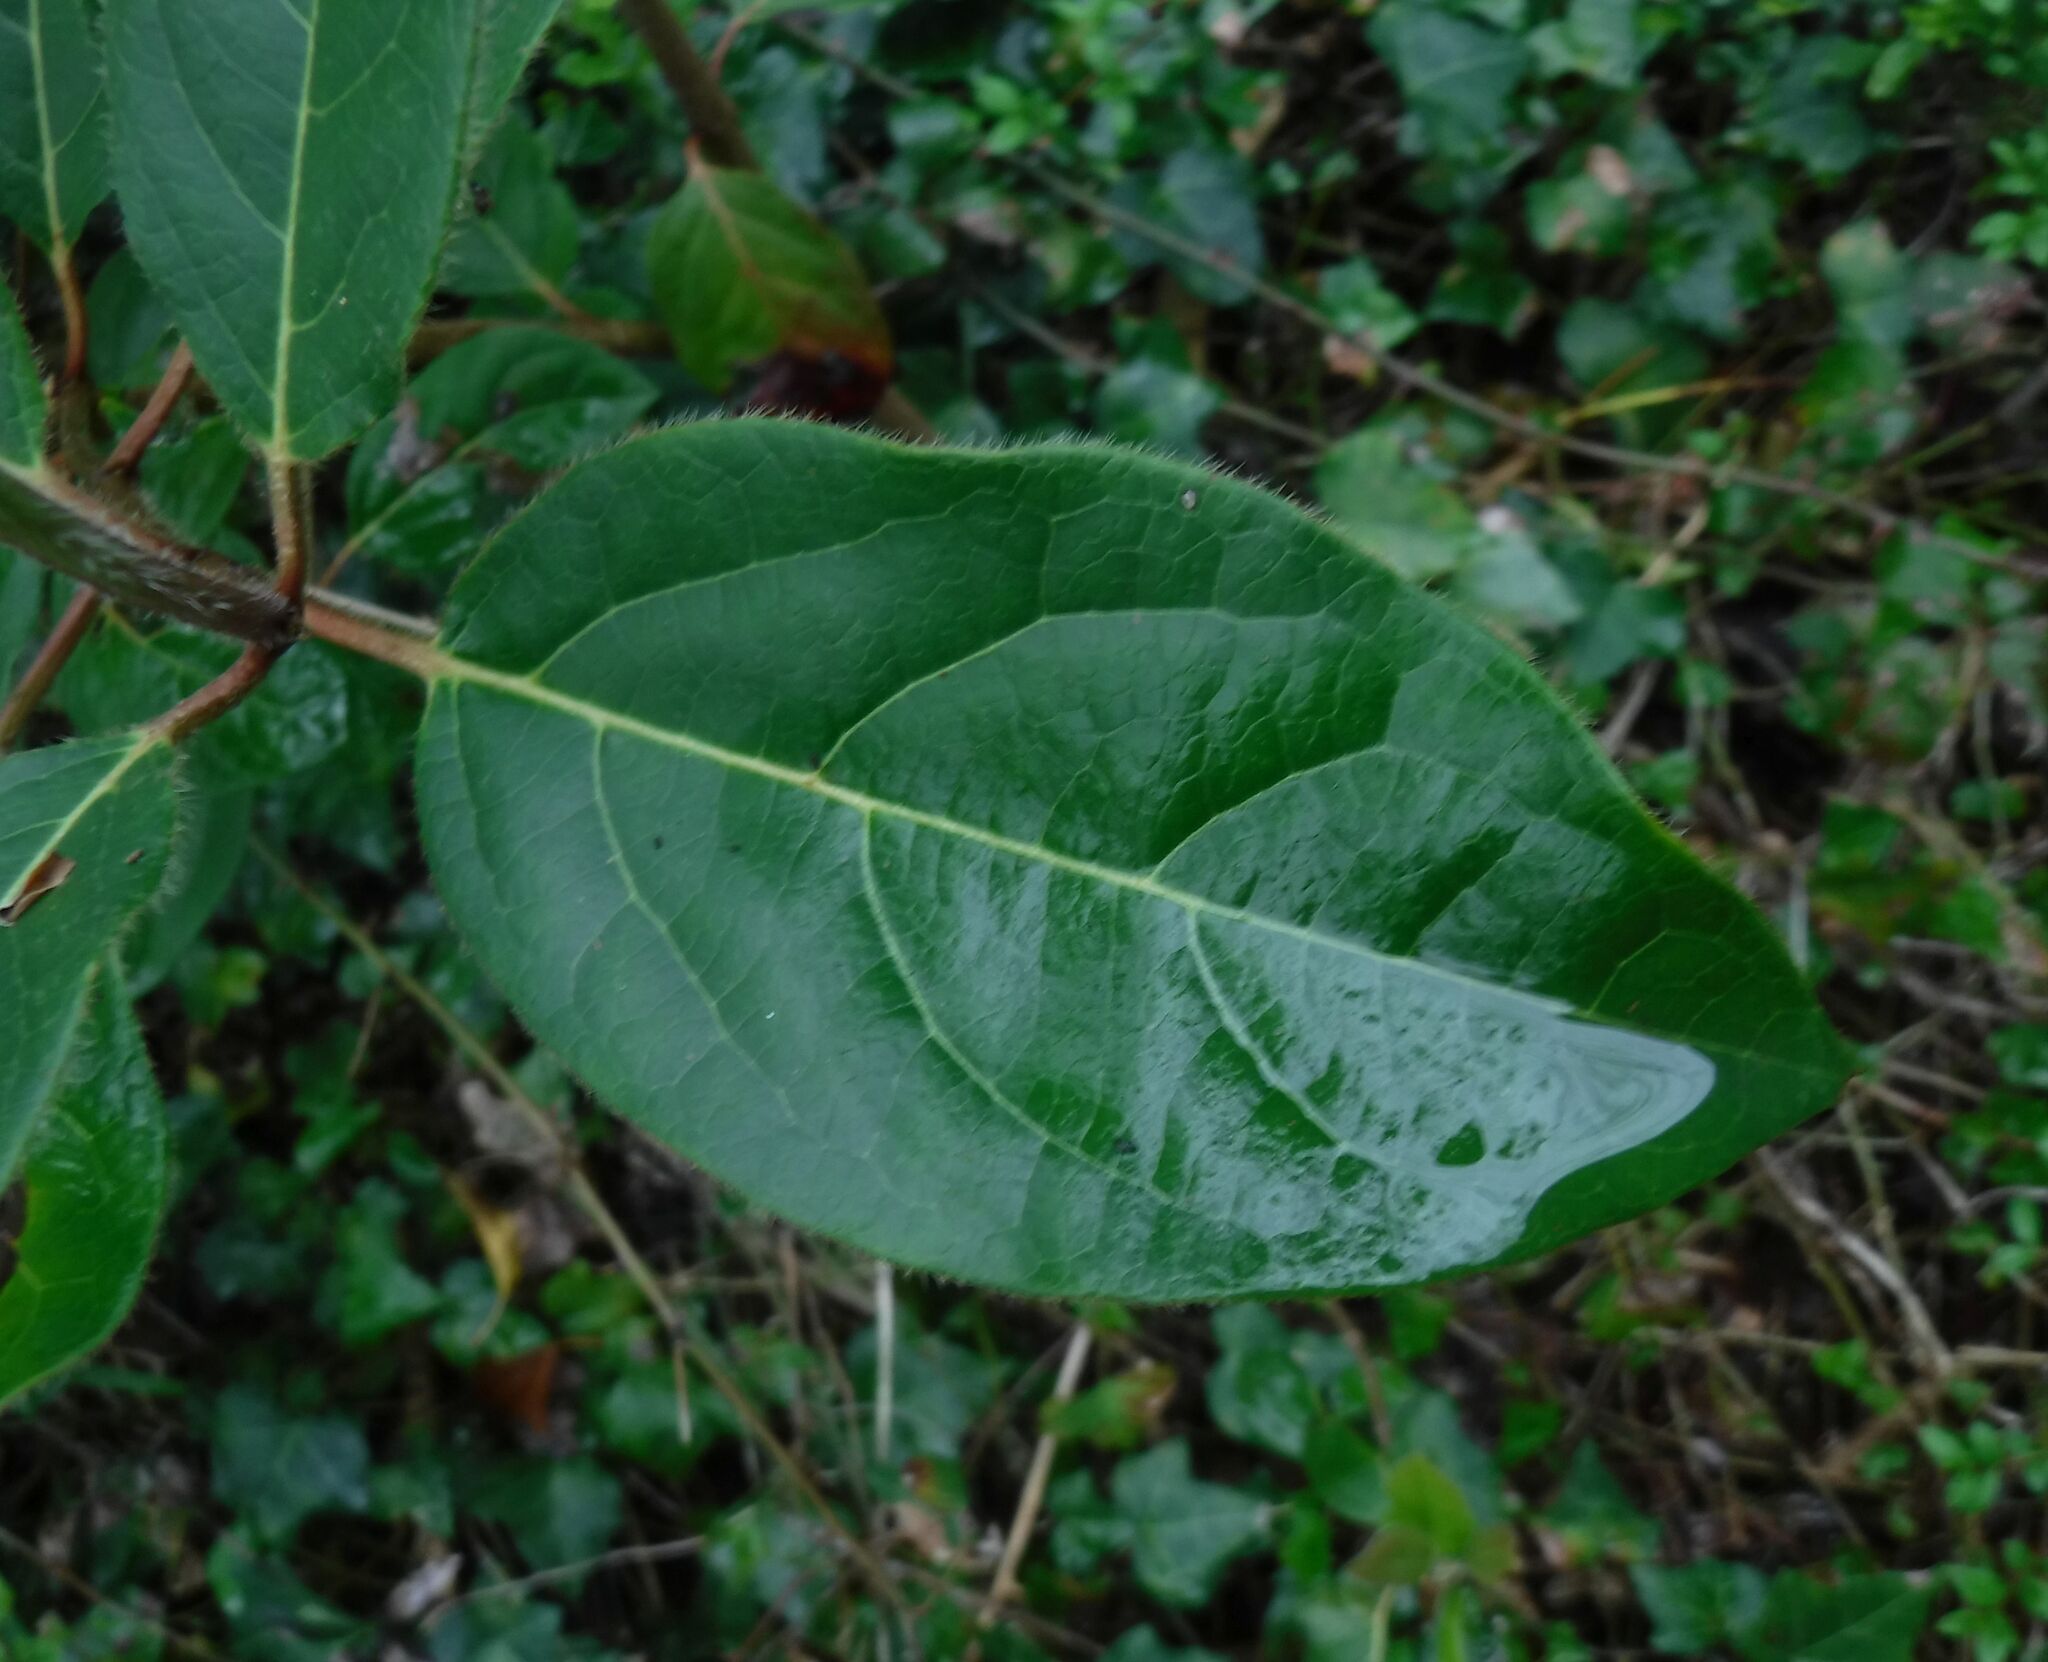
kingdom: Plantae
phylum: Tracheophyta
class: Magnoliopsida
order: Dipsacales
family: Viburnaceae
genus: Viburnum
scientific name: Viburnum tinus
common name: Laurustinus
